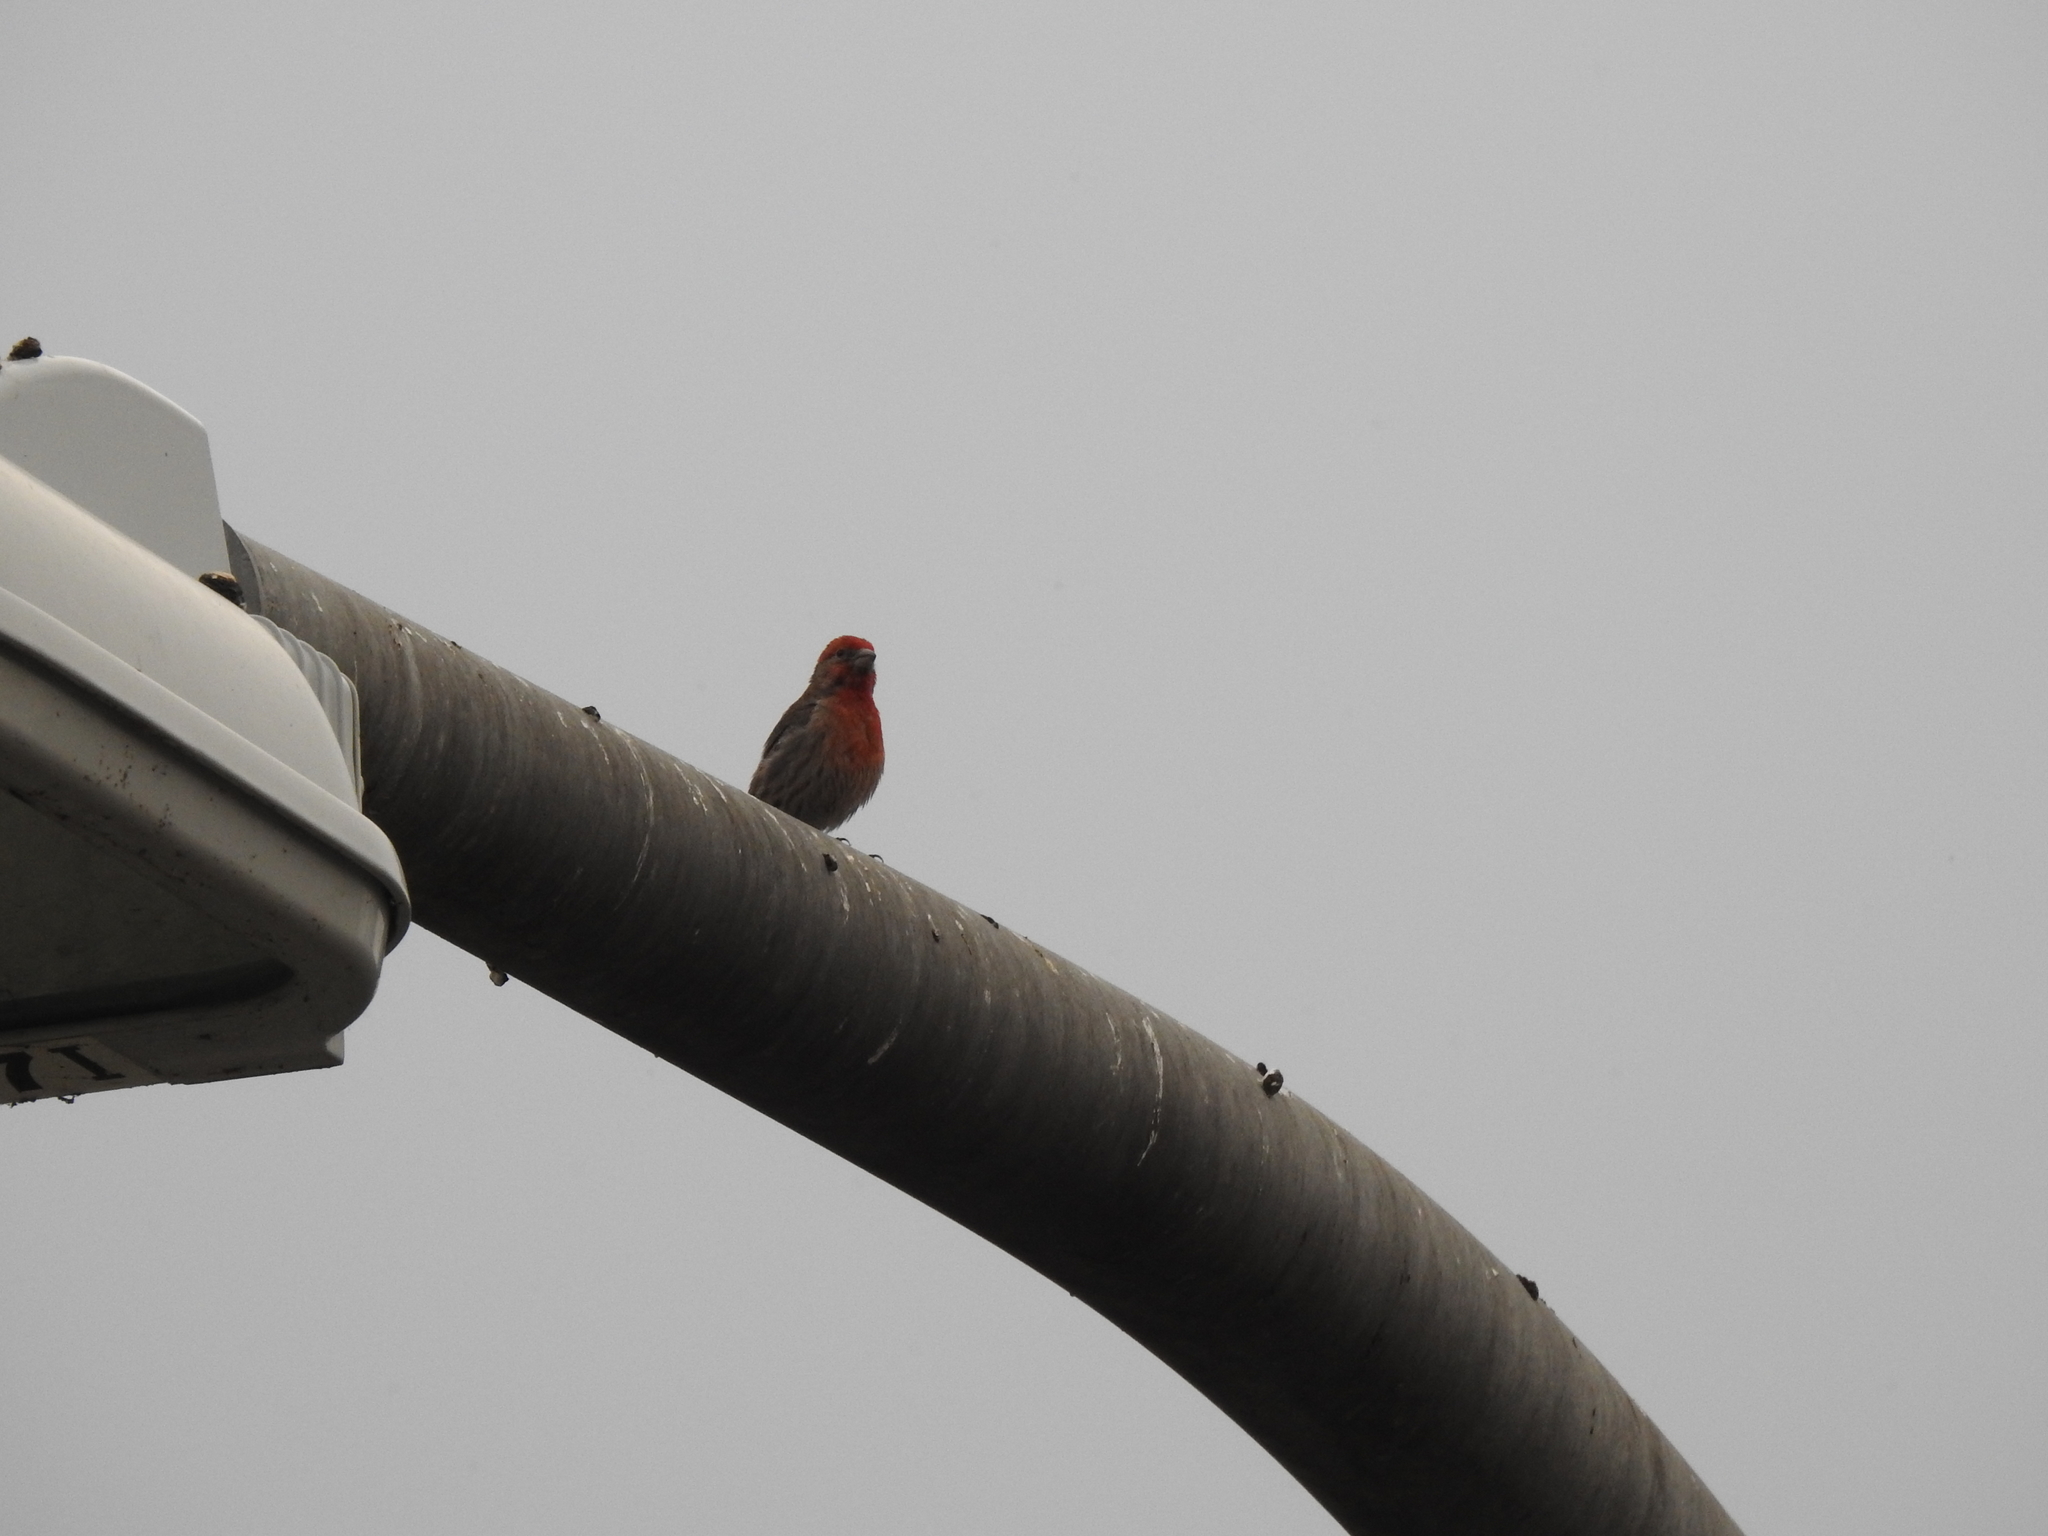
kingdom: Animalia
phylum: Chordata
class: Aves
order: Passeriformes
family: Fringillidae
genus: Haemorhous
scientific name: Haemorhous mexicanus
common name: House finch
